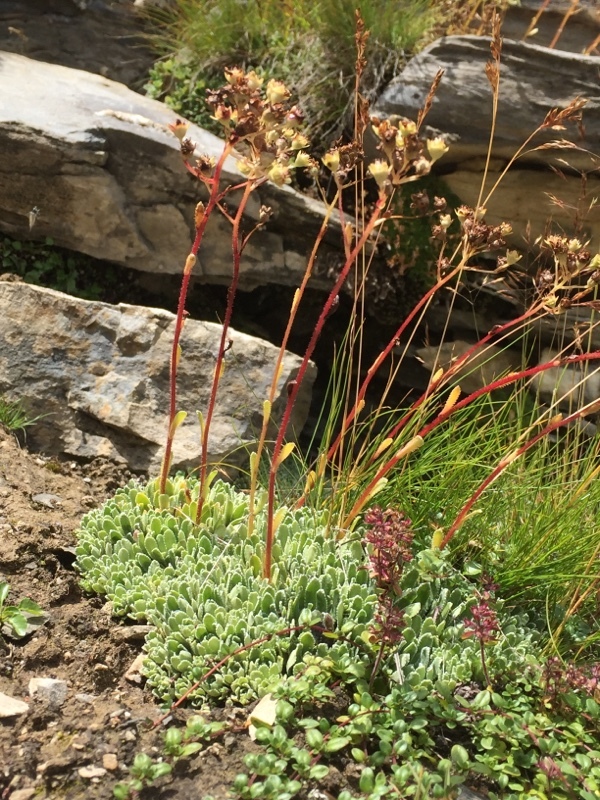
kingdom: Plantae
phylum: Tracheophyta
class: Magnoliopsida
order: Saxifragales
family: Saxifragaceae
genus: Saxifraga
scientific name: Saxifraga paniculata
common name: Livelong saxifrage
